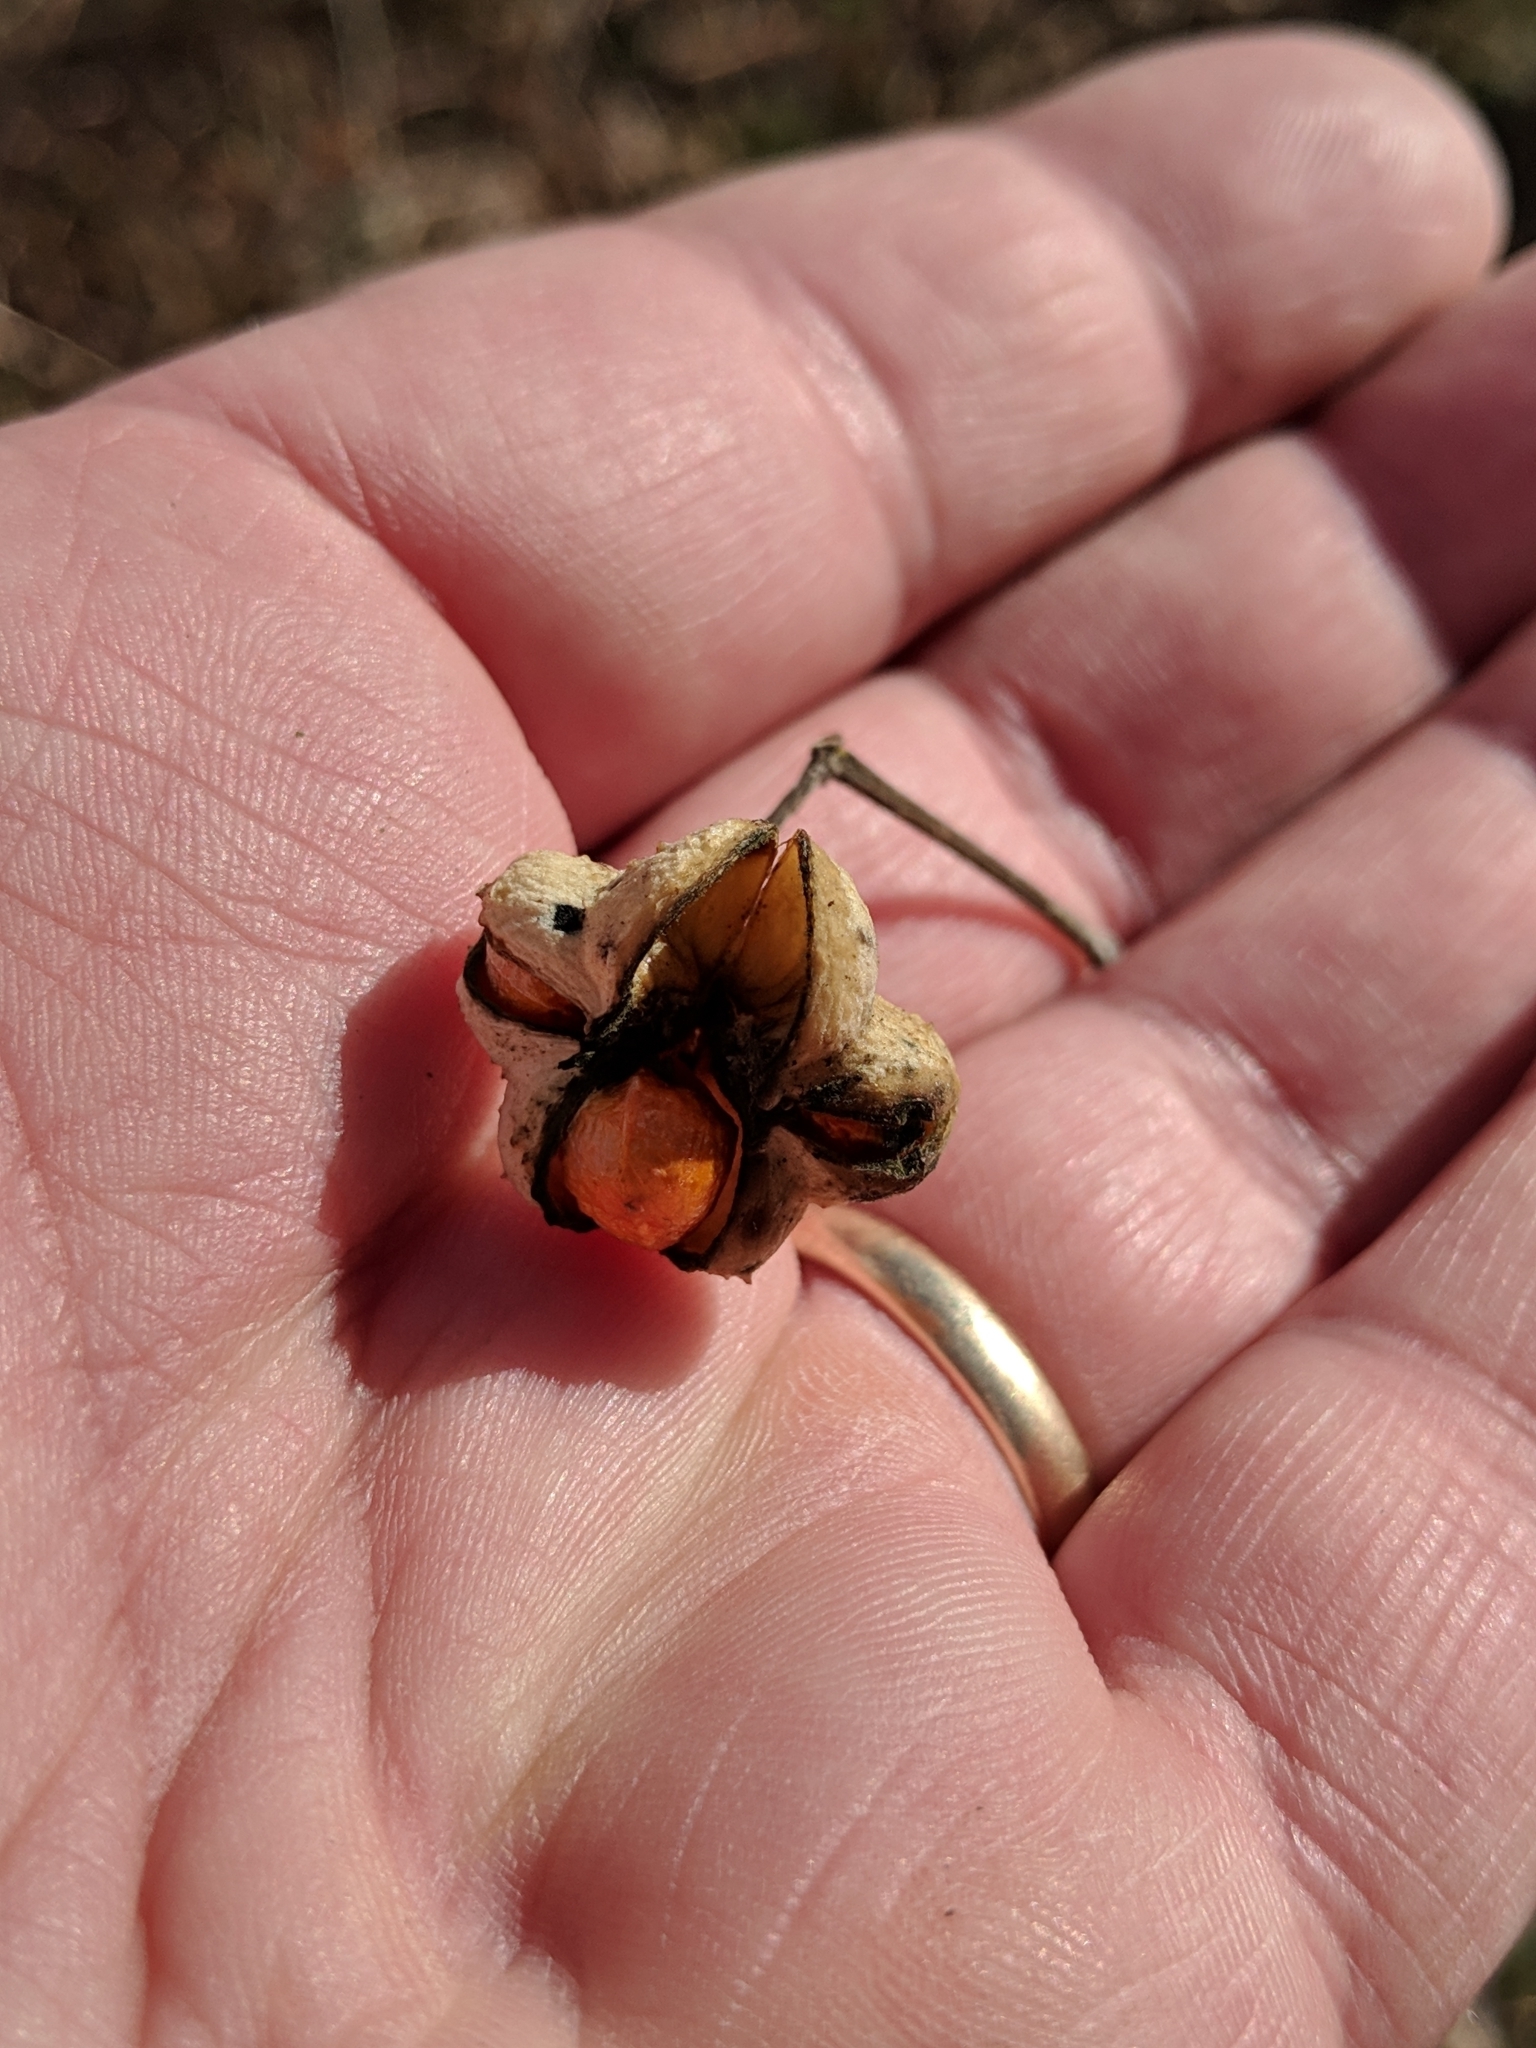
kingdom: Plantae
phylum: Tracheophyta
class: Magnoliopsida
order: Celastrales
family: Celastraceae
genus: Euonymus
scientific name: Euonymus europaeus
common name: Spindle
